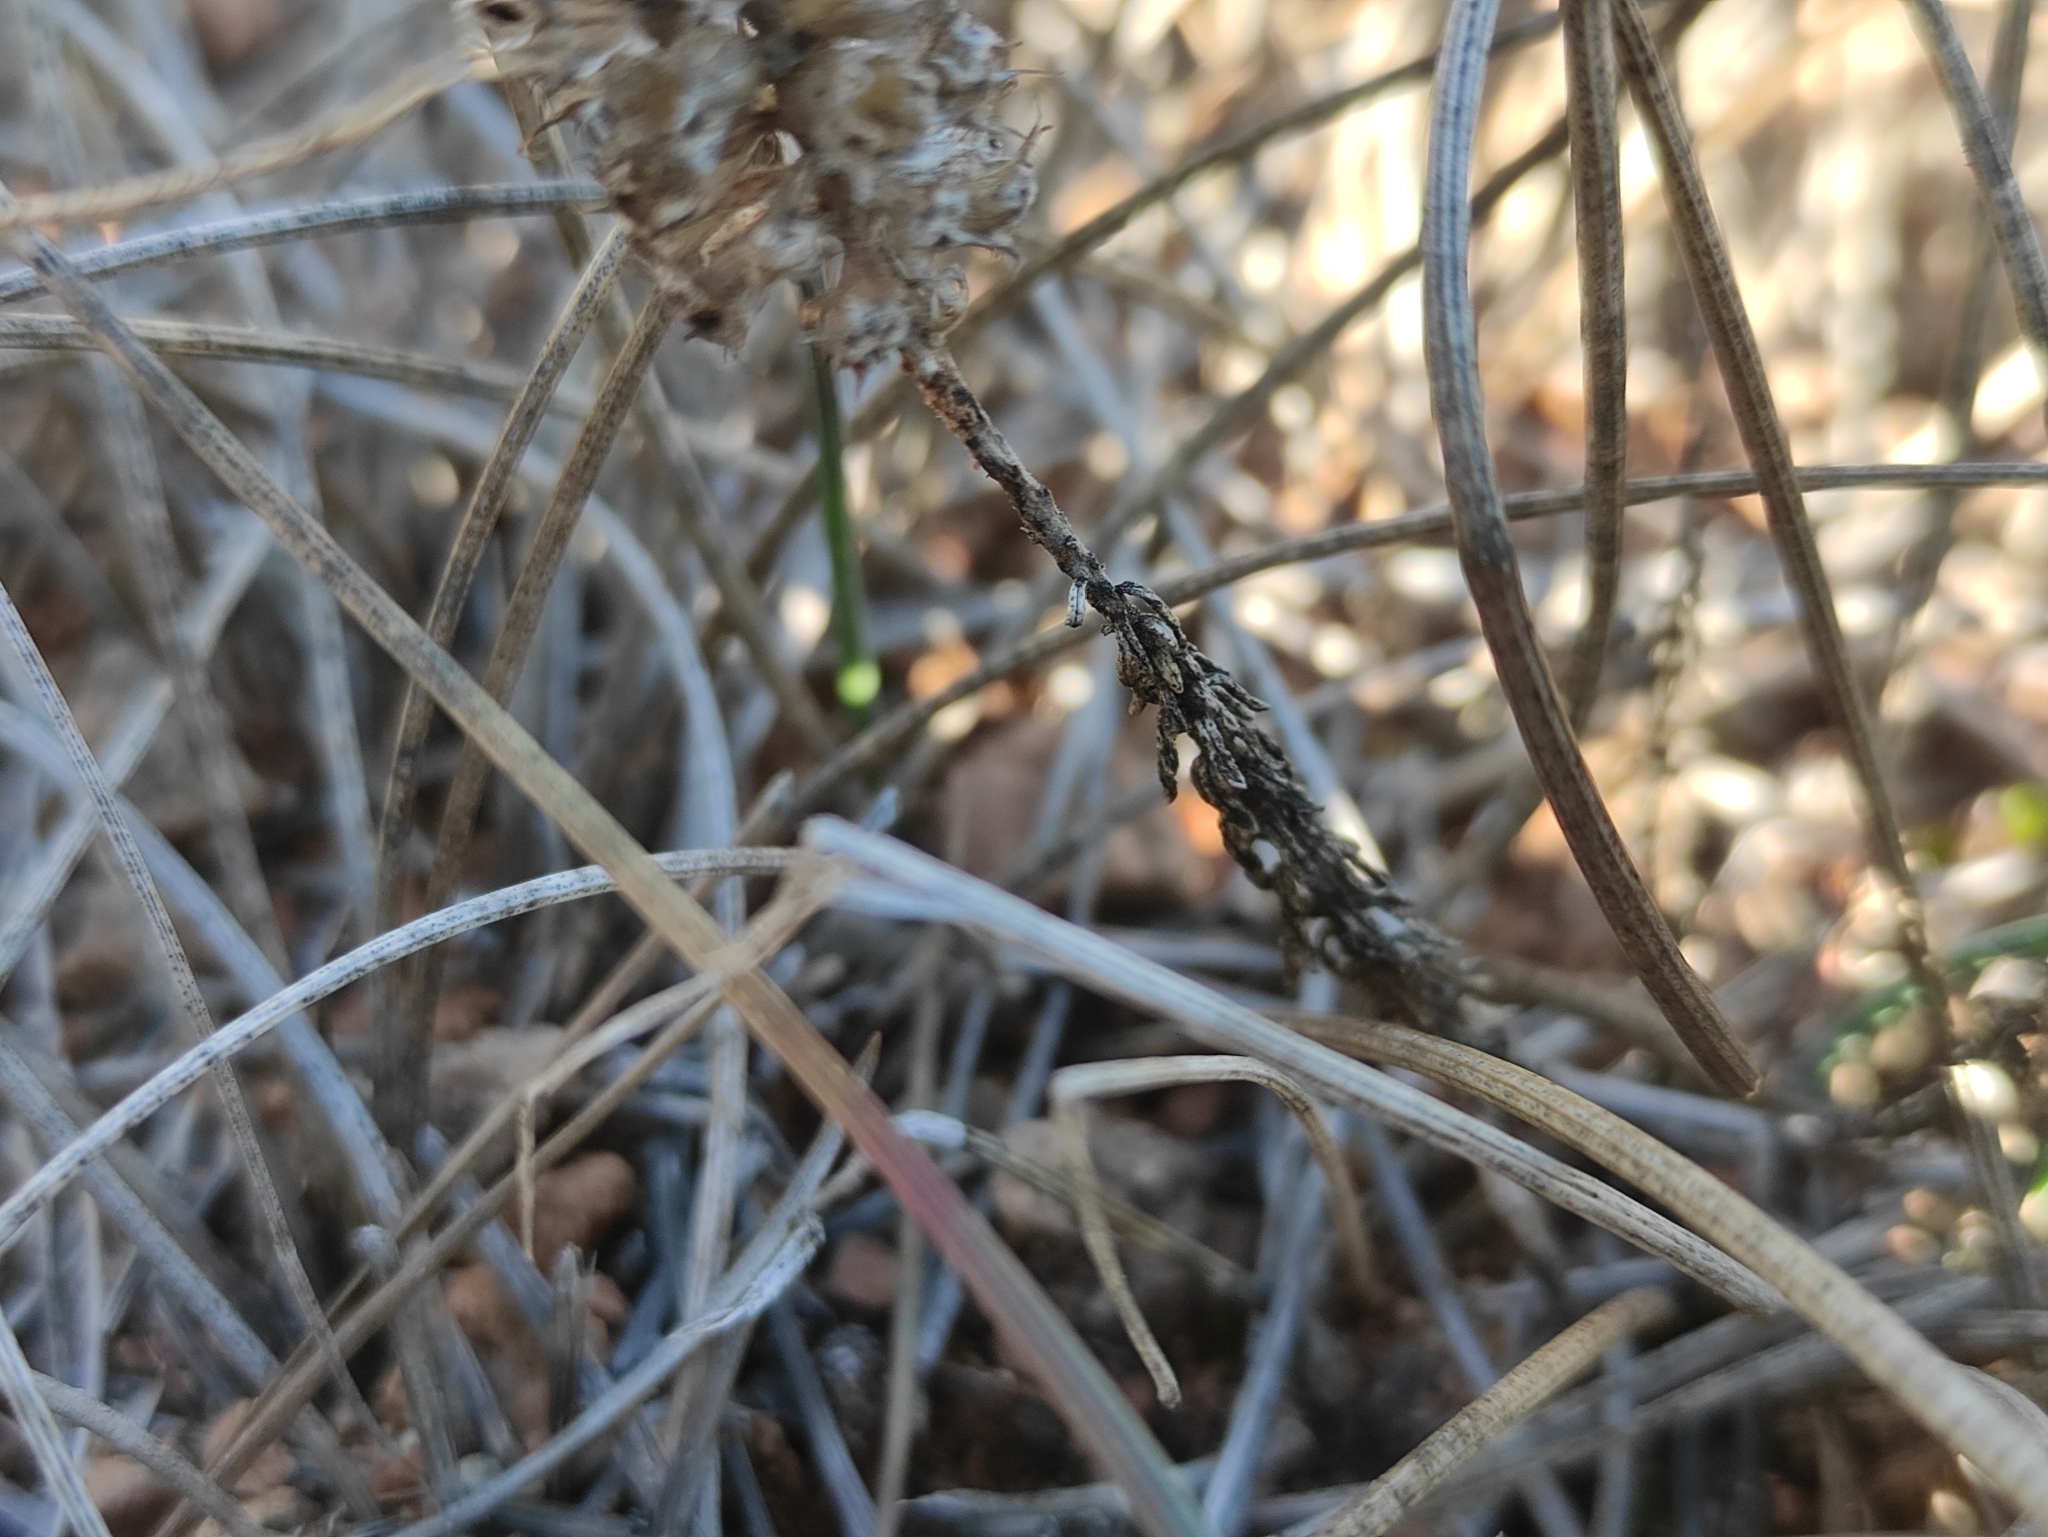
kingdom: Plantae
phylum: Tracheophyta
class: Magnoliopsida
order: Ericales
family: Primulaceae
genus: Coris
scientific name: Coris monspeliensis
